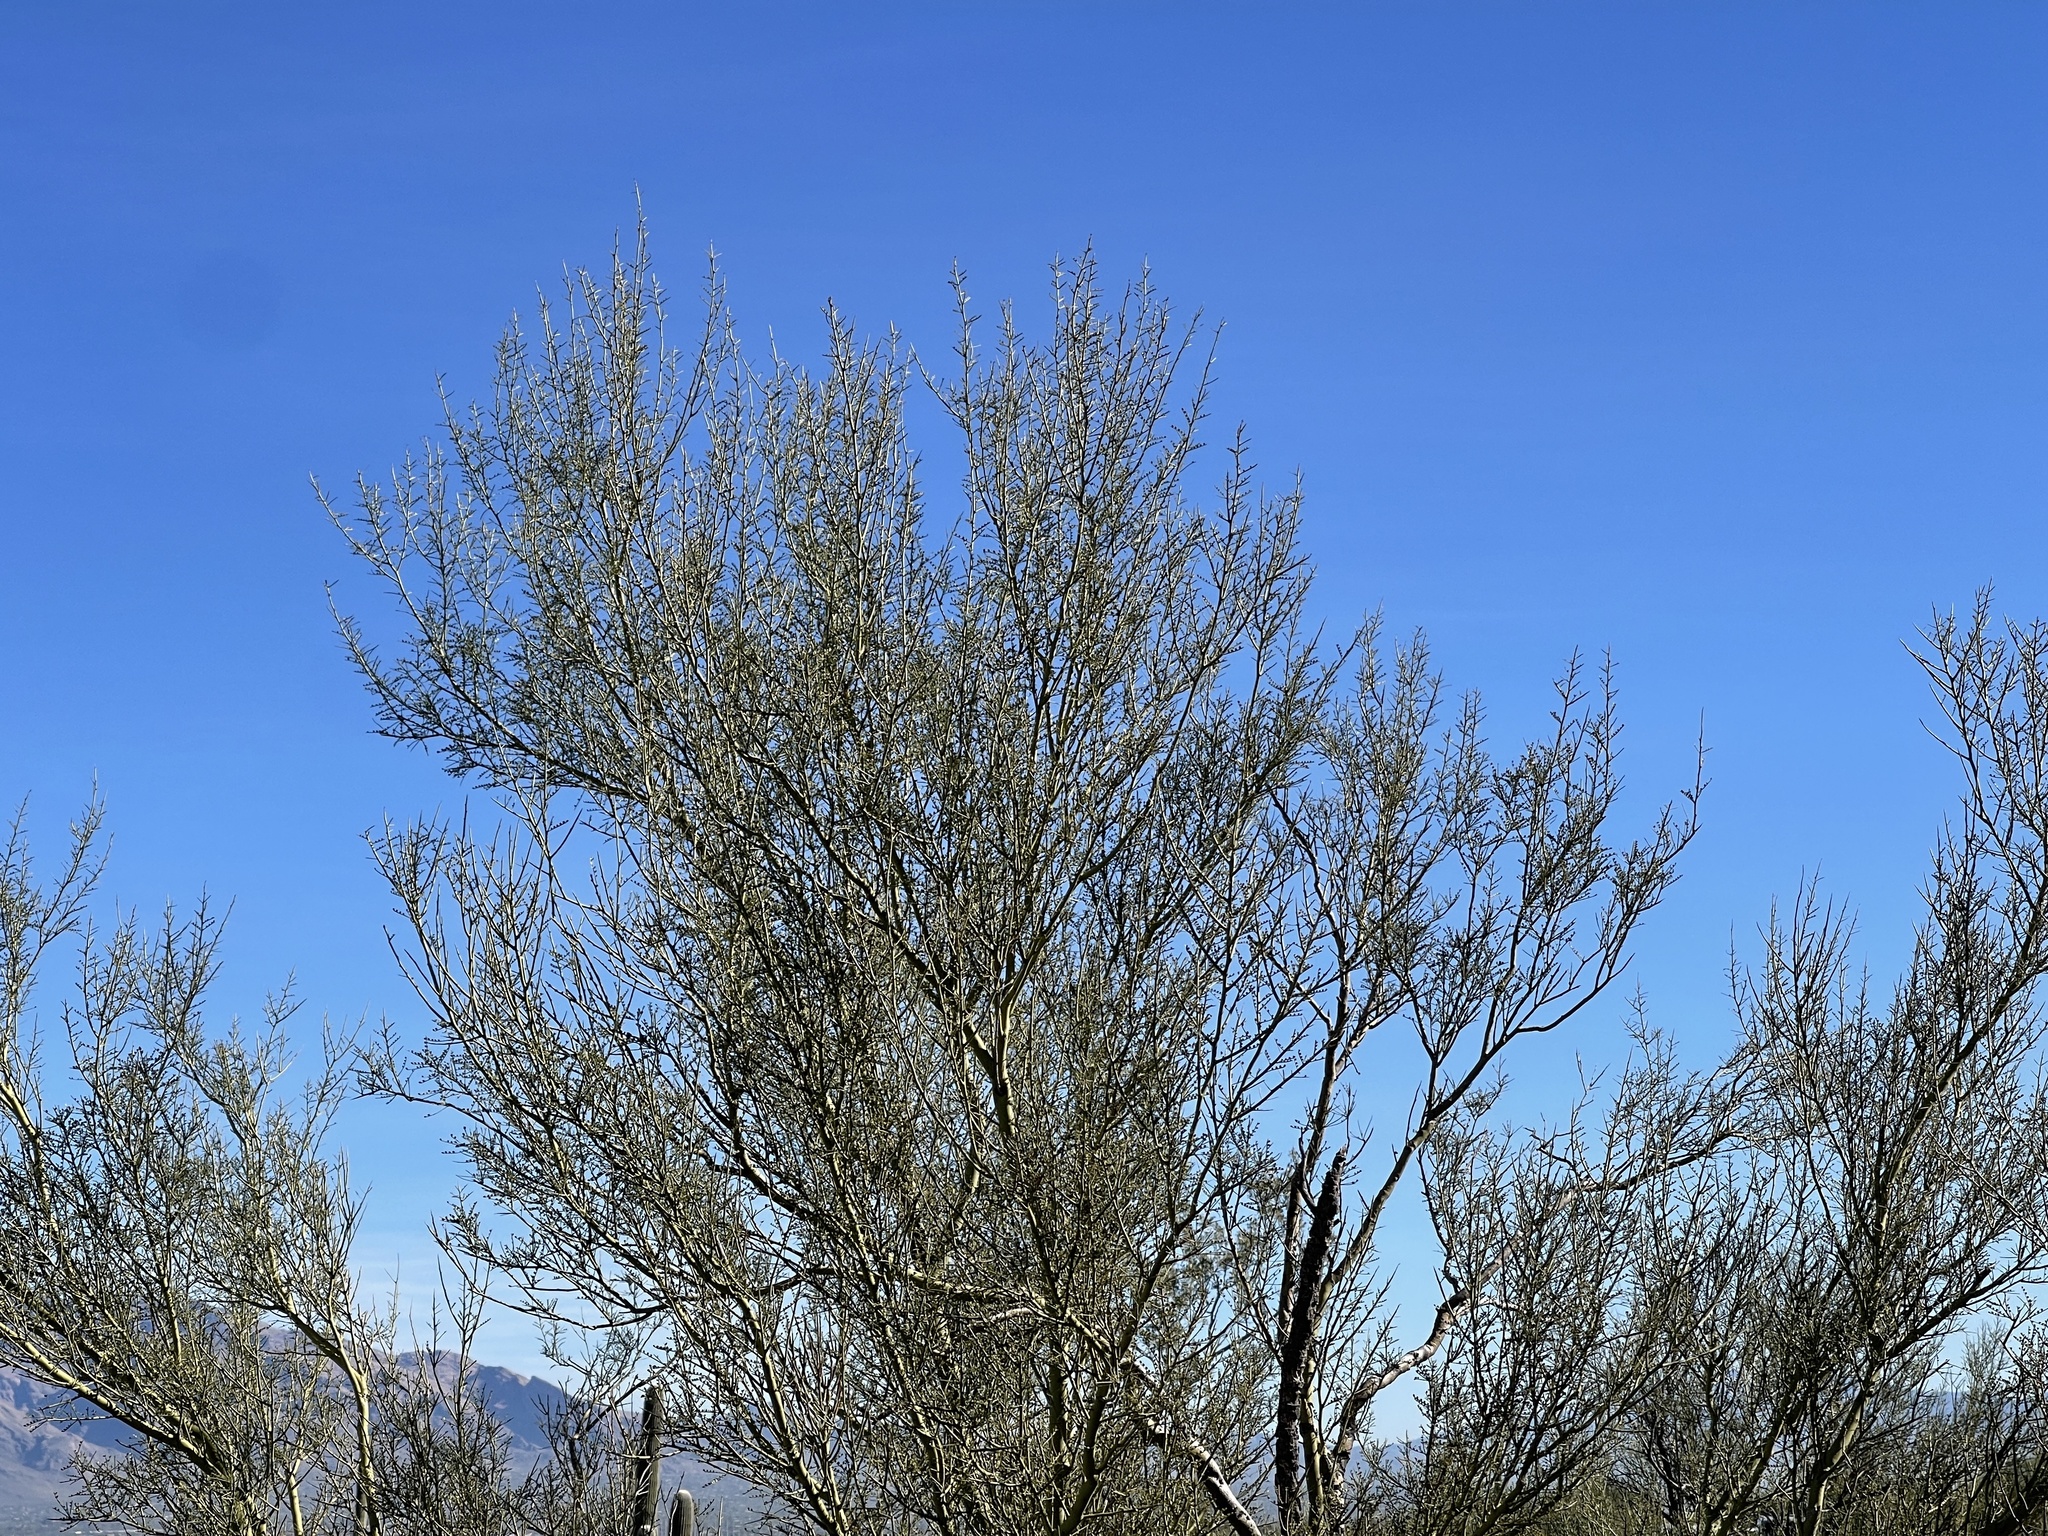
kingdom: Plantae
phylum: Tracheophyta
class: Magnoliopsida
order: Fabales
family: Fabaceae
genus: Parkinsonia
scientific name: Parkinsonia microphylla
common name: Yellow paloverde
